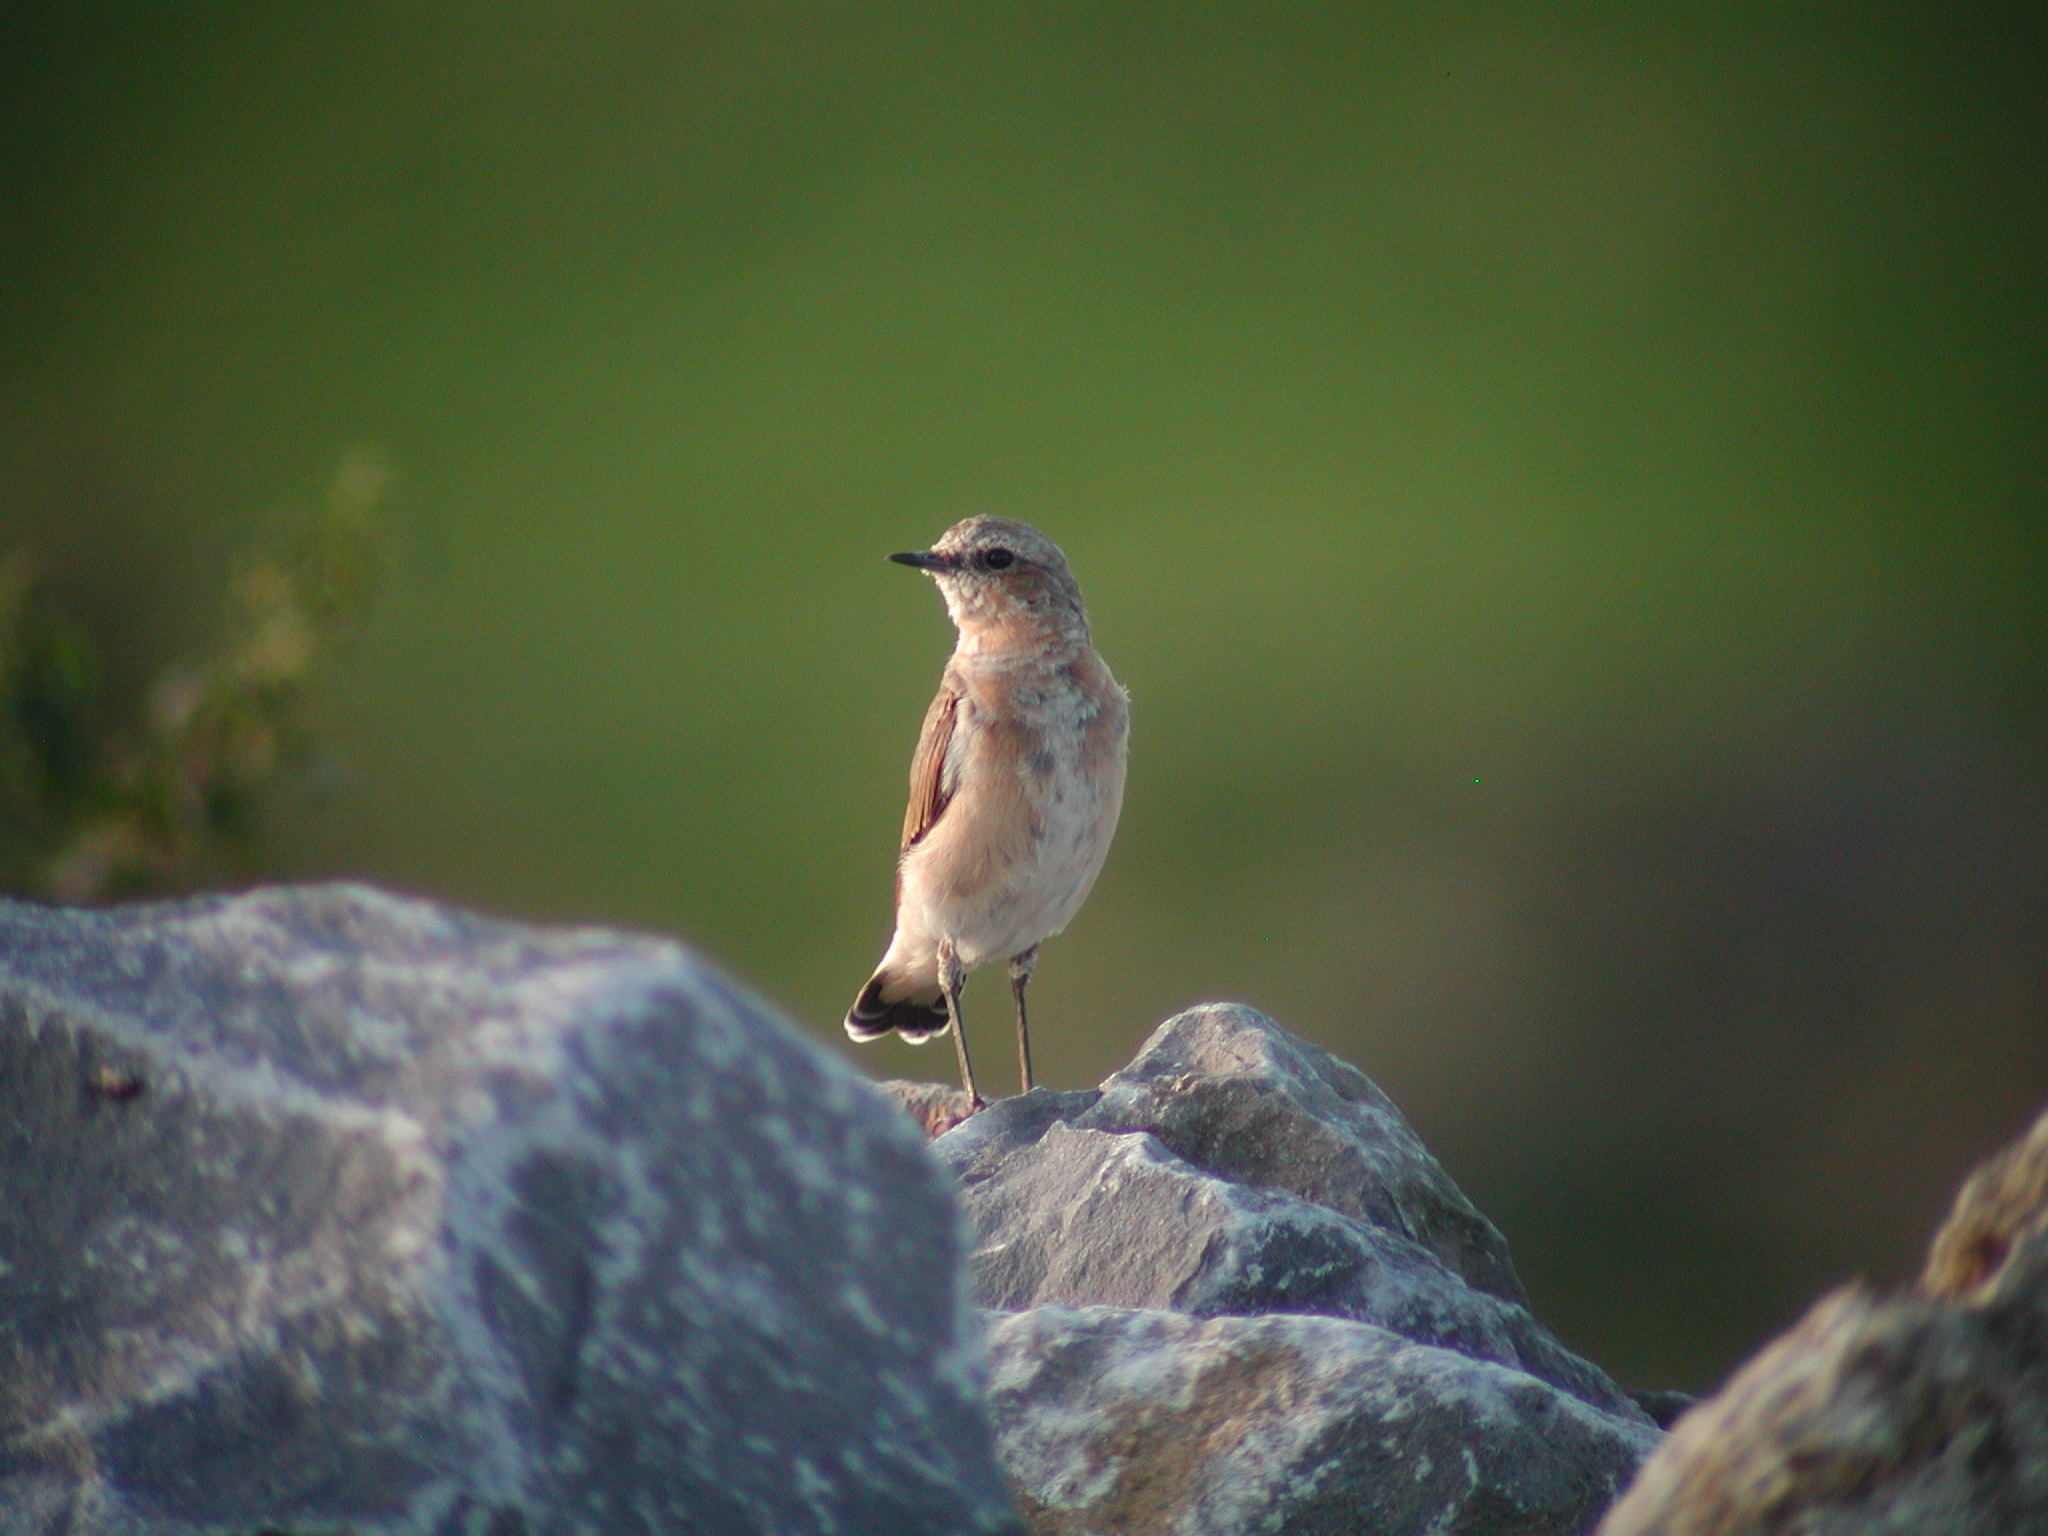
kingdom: Animalia
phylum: Chordata
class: Aves
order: Passeriformes
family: Muscicapidae
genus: Oenanthe
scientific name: Oenanthe oenanthe
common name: Northern wheatear
